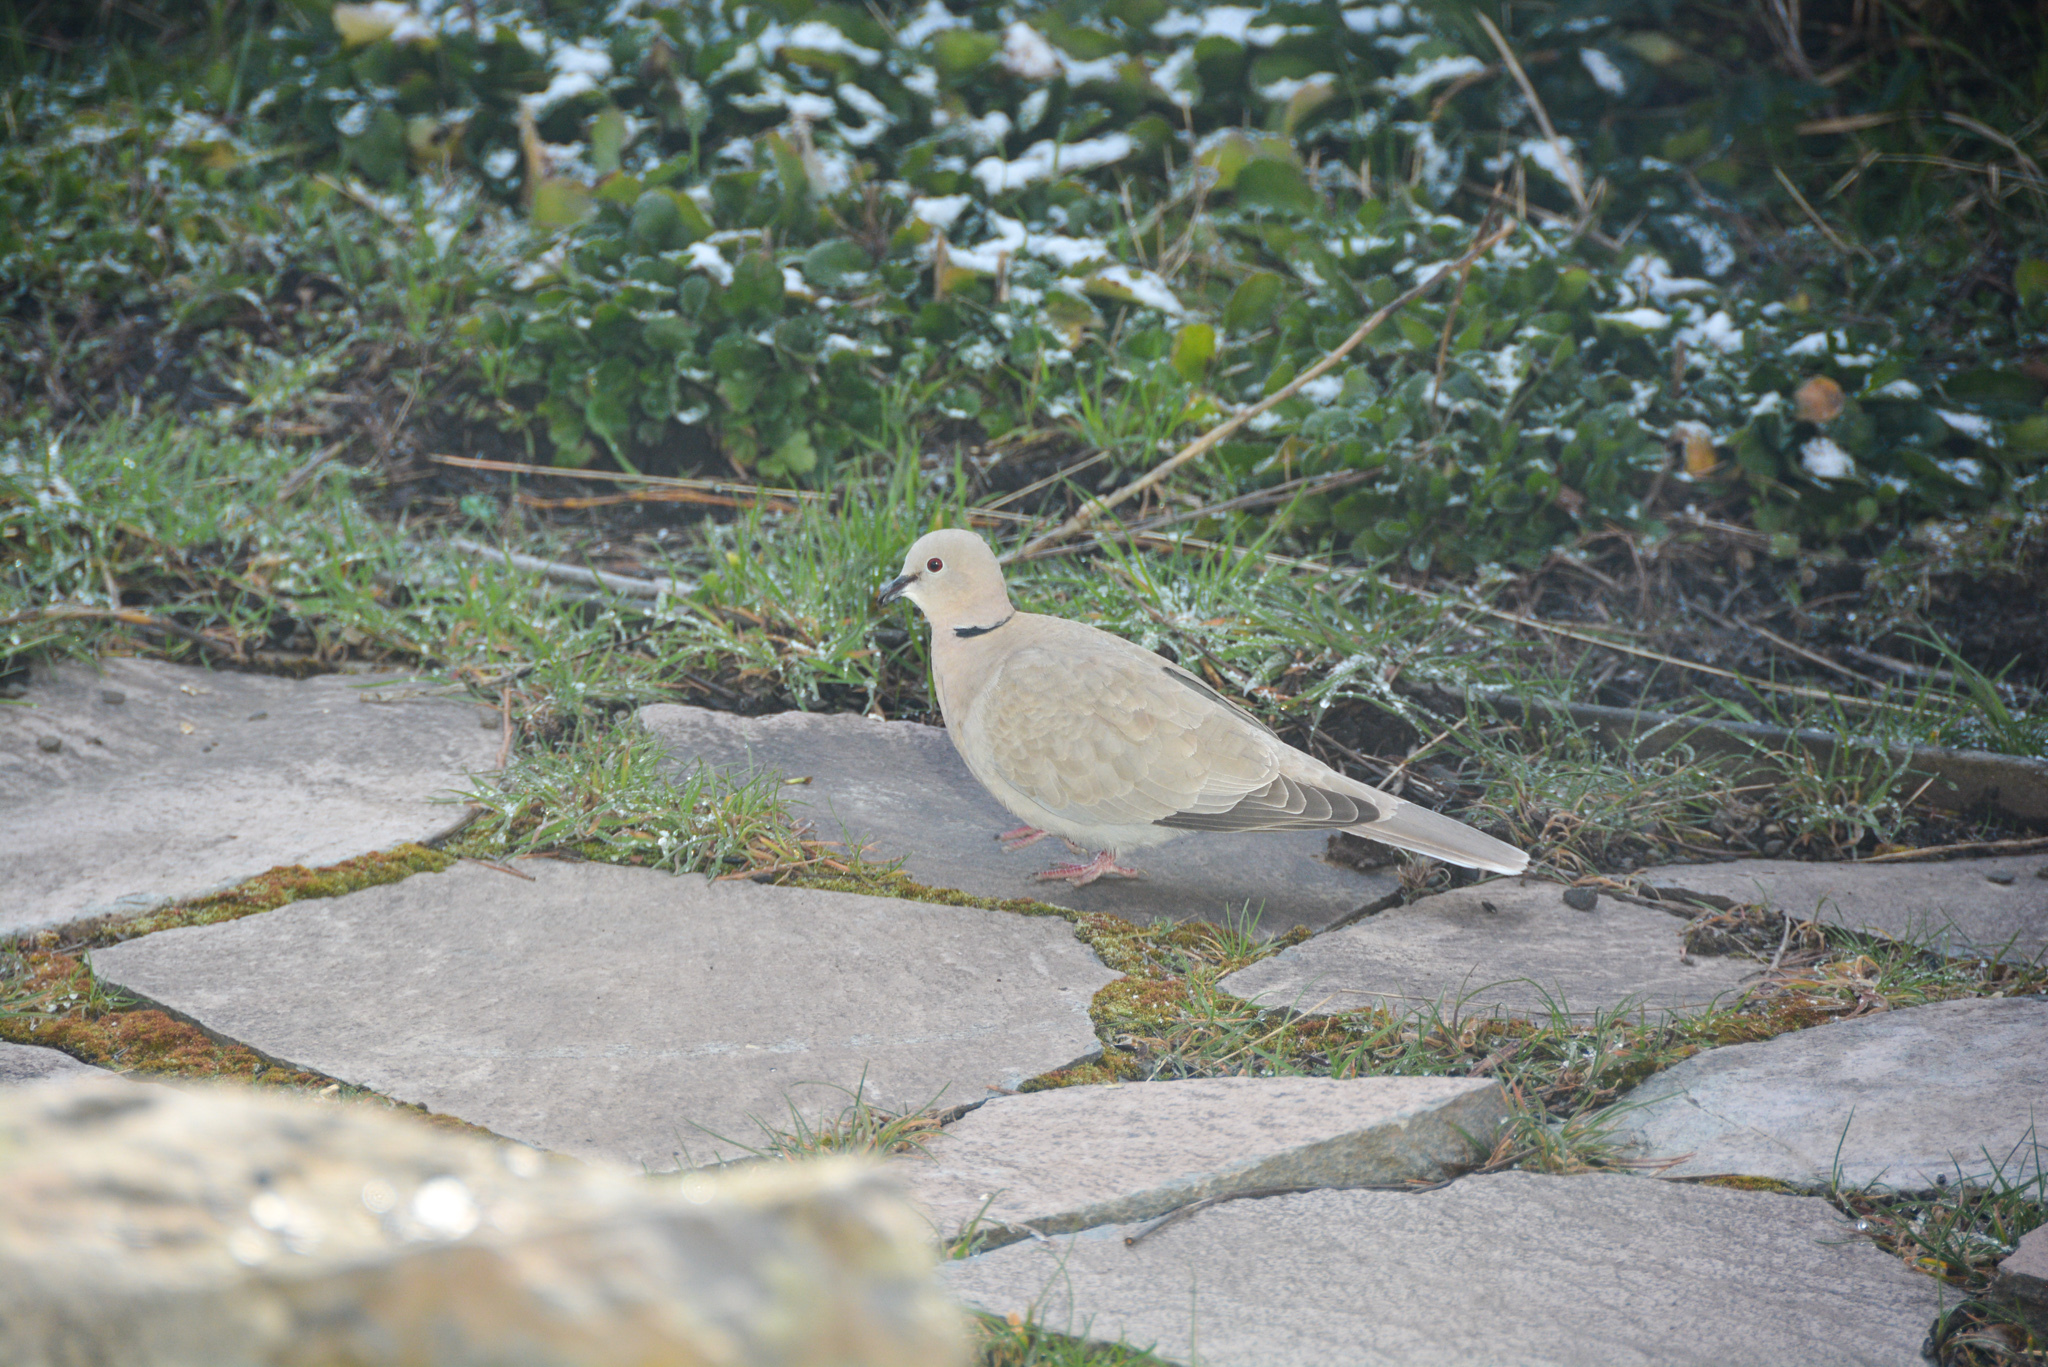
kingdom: Animalia
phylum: Chordata
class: Aves
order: Columbiformes
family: Columbidae
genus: Streptopelia
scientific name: Streptopelia decaocto
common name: Eurasian collared dove
